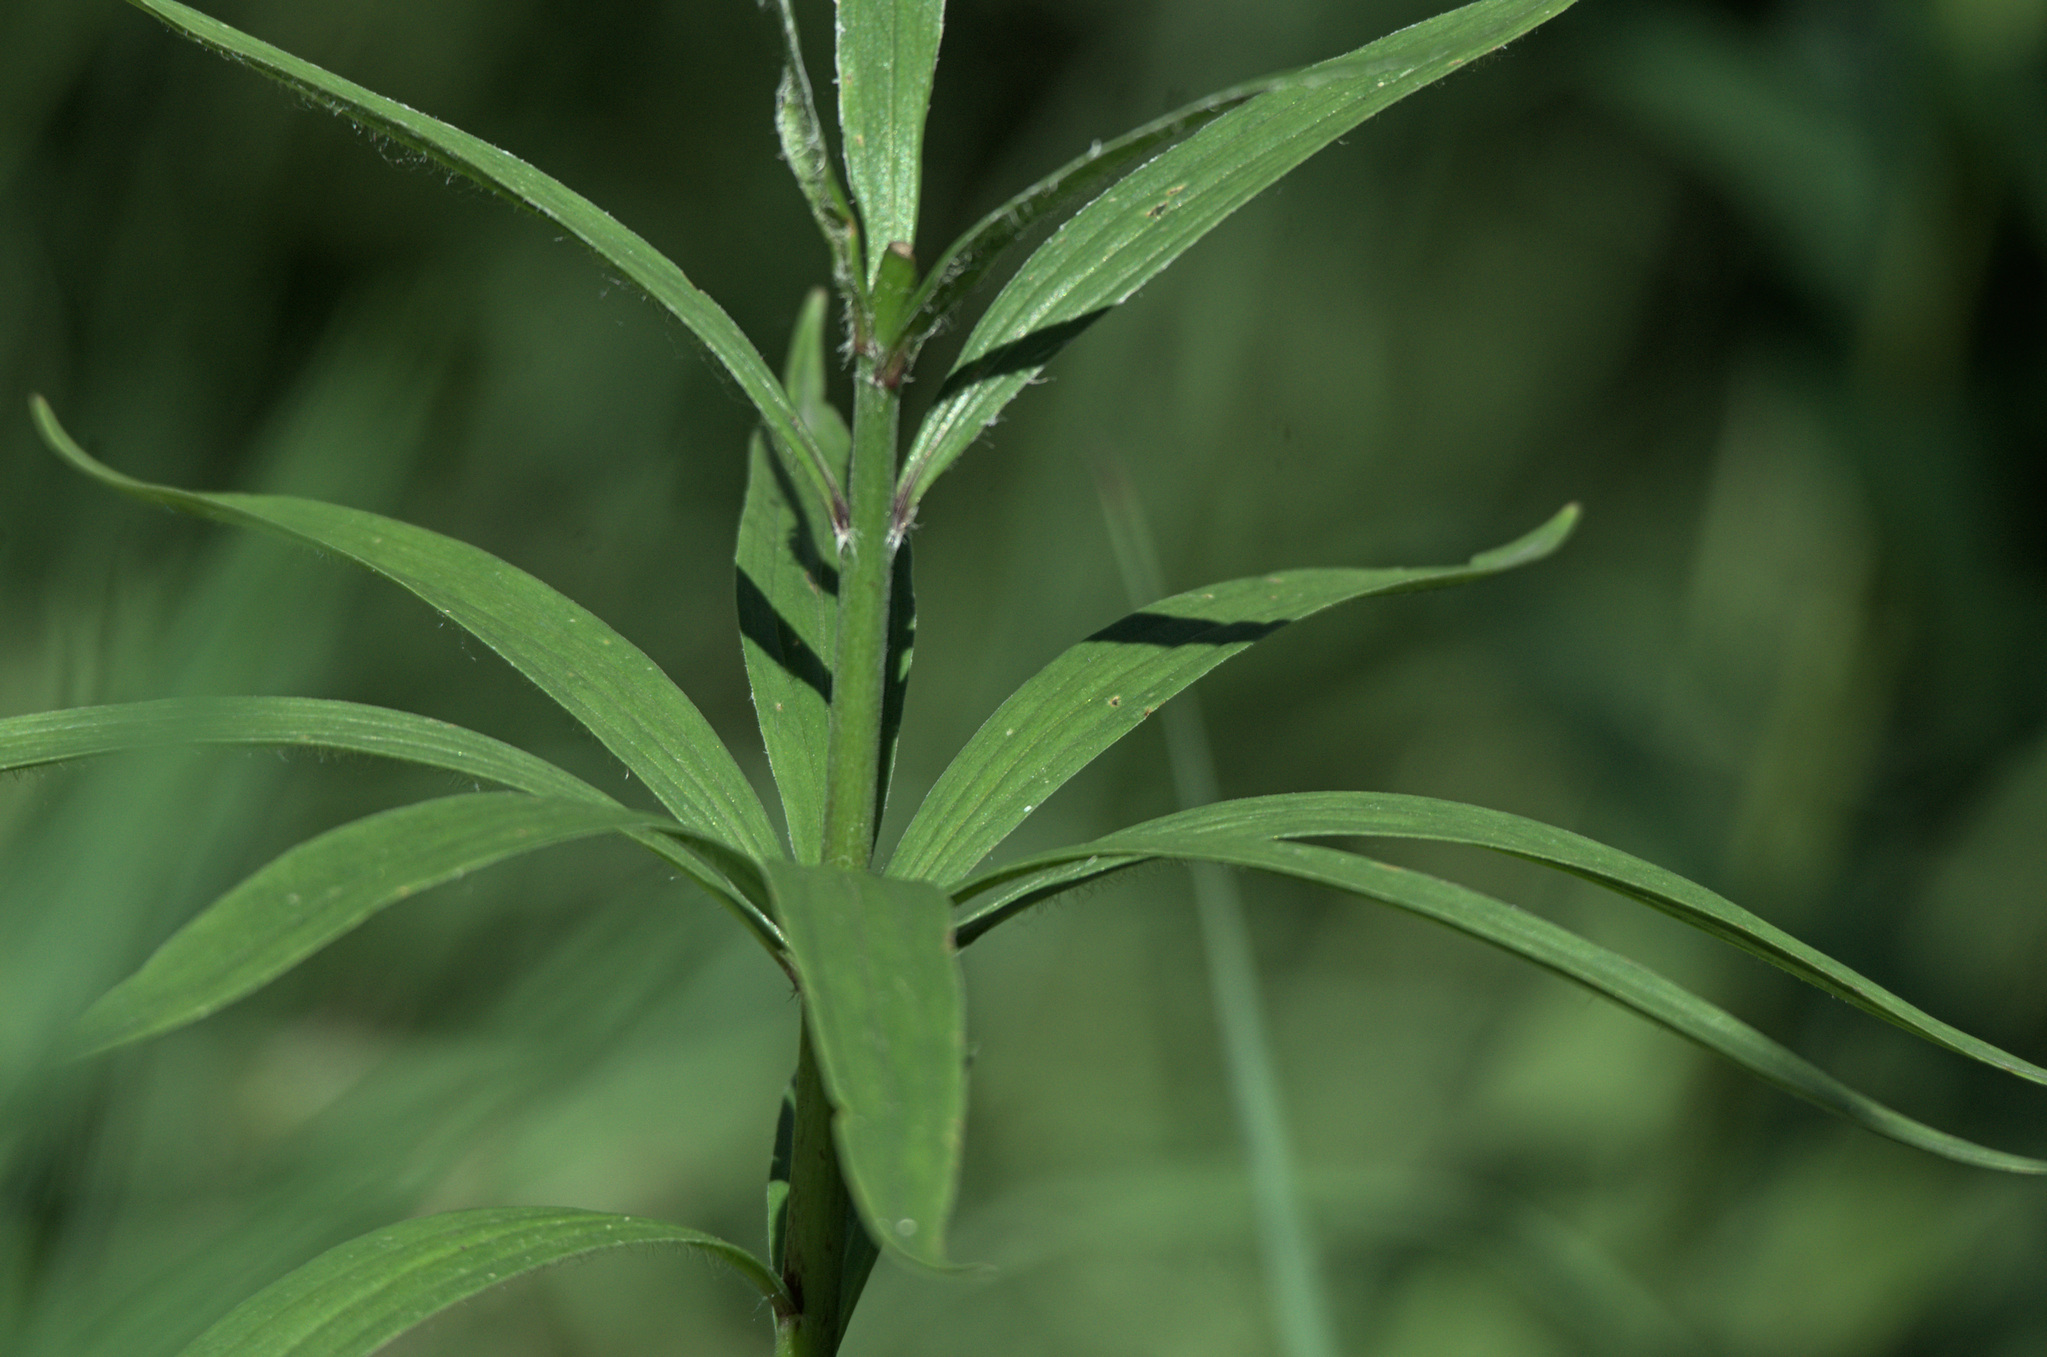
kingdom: Plantae
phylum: Tracheophyta
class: Liliopsida
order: Liliales
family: Liliaceae
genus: Lilium
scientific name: Lilium martagon
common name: Martagon lily
